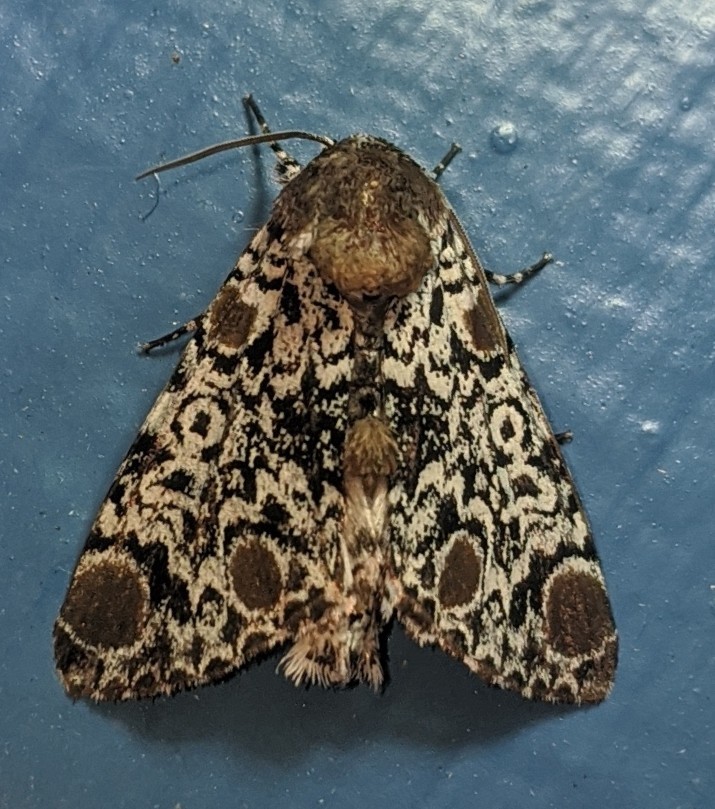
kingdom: Animalia
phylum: Arthropoda
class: Insecta
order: Lepidoptera
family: Noctuidae
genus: Harrisimemna
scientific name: Harrisimemna trisignata
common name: Harris threespot
